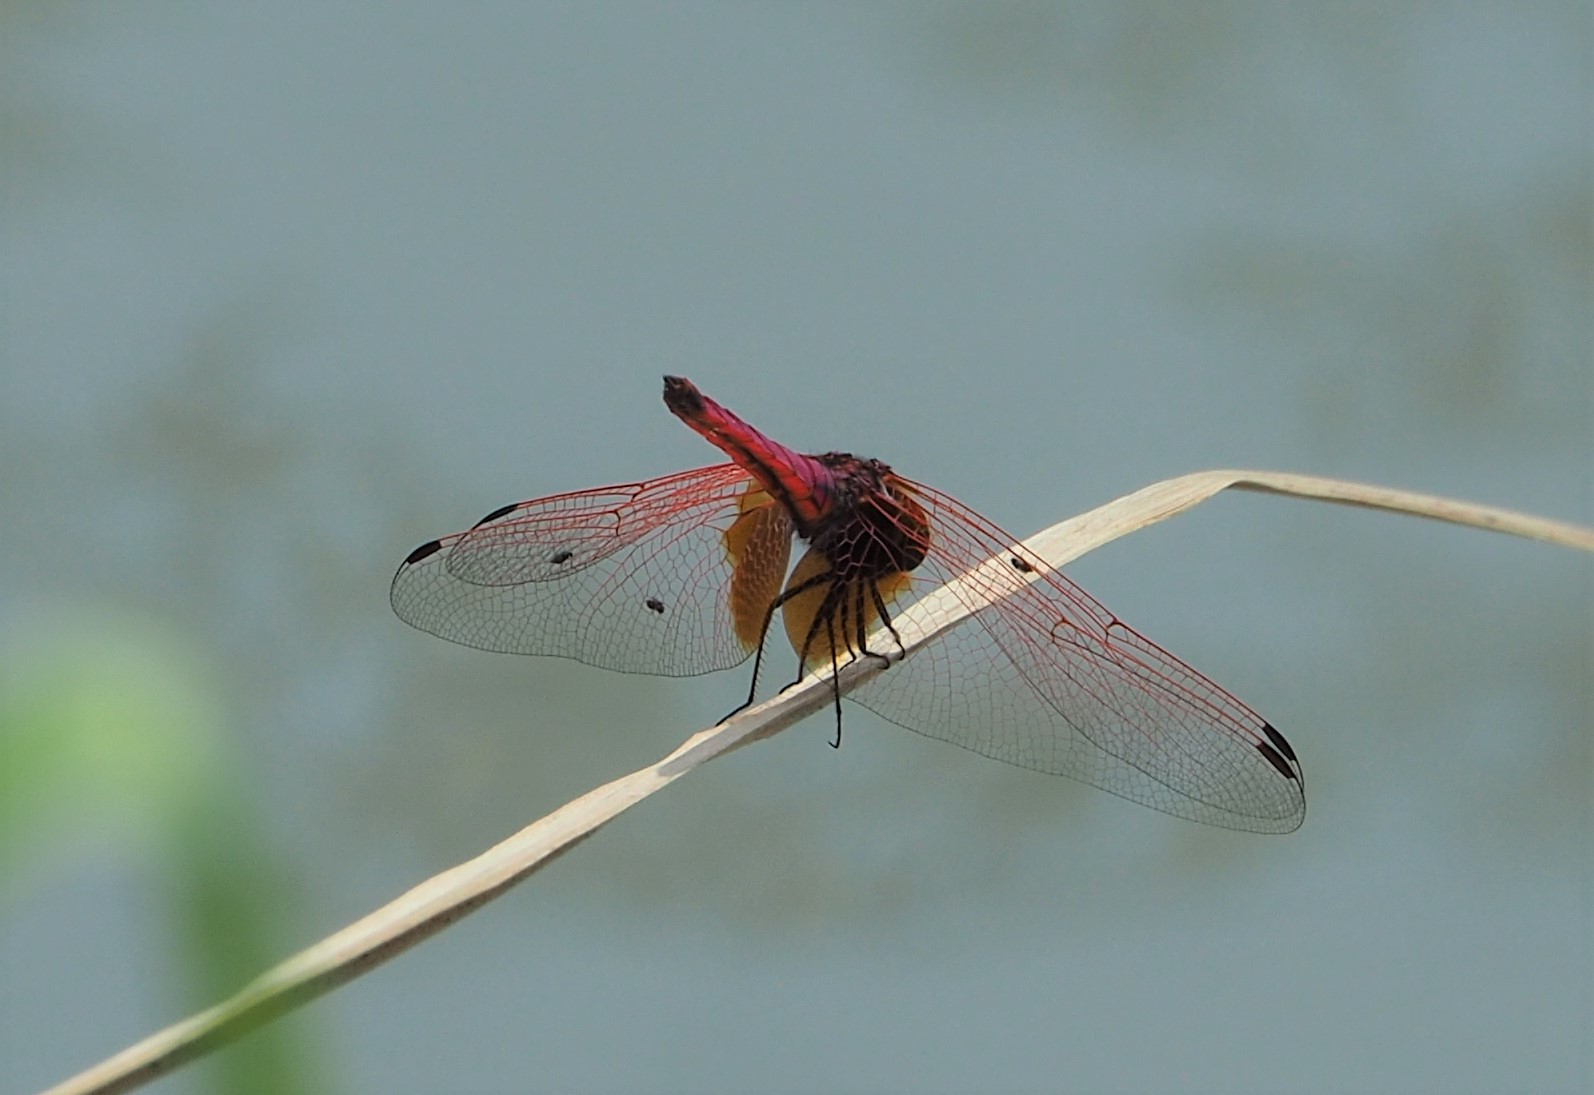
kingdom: Animalia
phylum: Arthropoda
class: Insecta
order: Odonata
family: Libellulidae
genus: Trithemis
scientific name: Trithemis aurora
